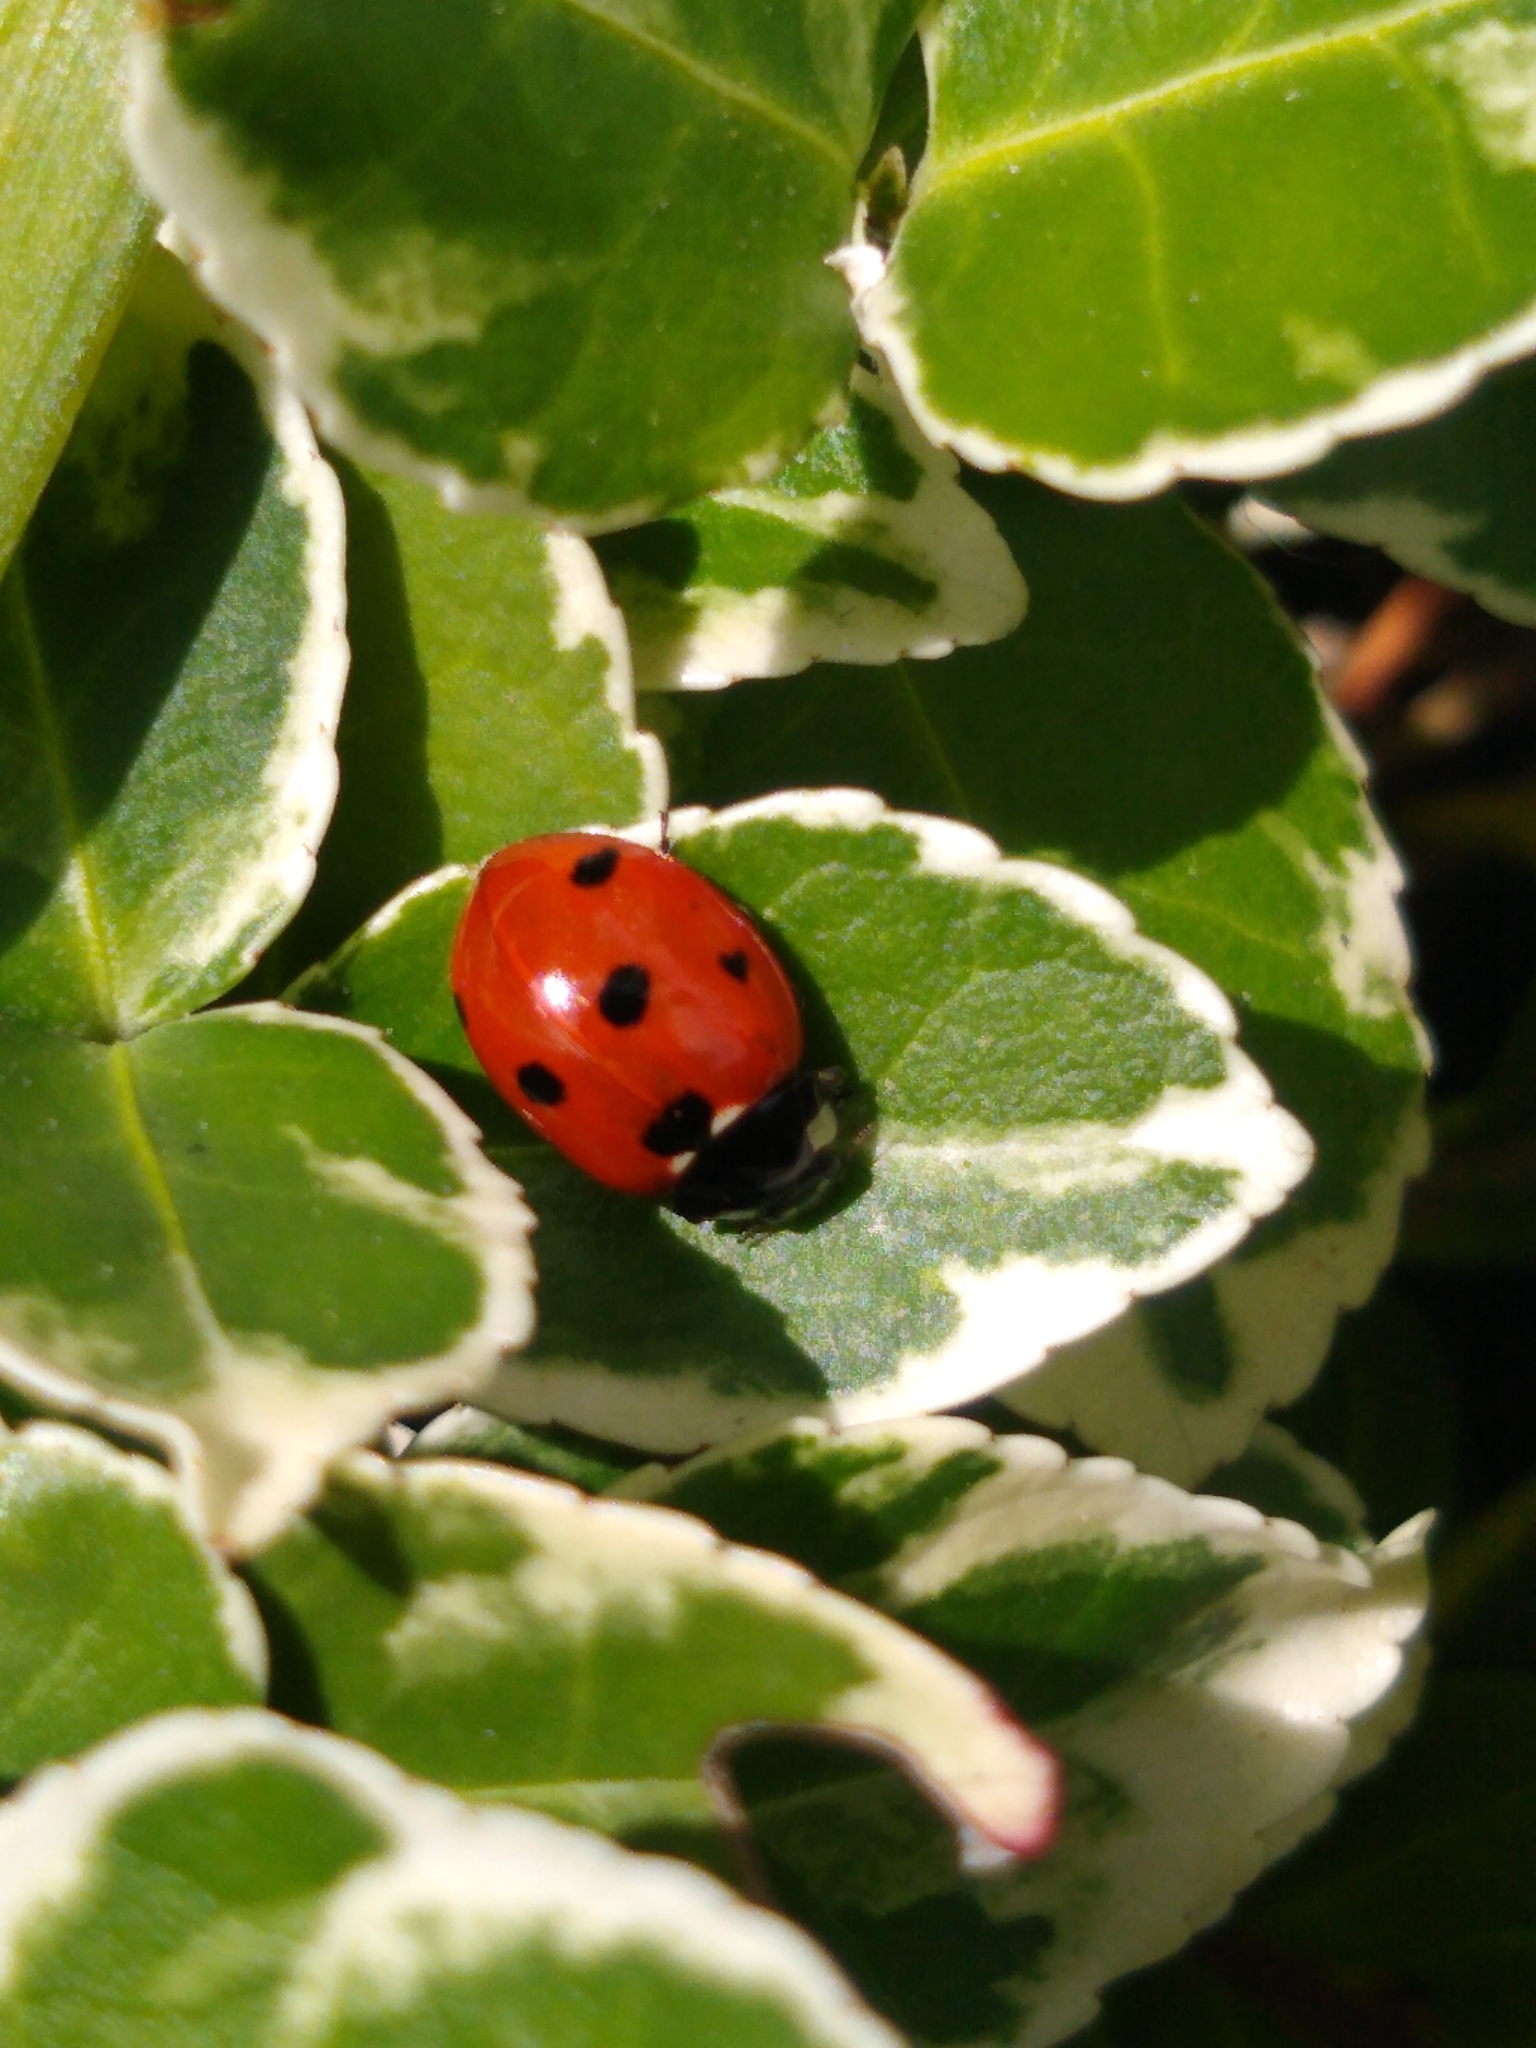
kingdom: Animalia
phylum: Arthropoda
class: Insecta
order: Coleoptera
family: Coccinellidae
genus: Coccinella
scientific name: Coccinella septempunctata
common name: Sevenspotted lady beetle
